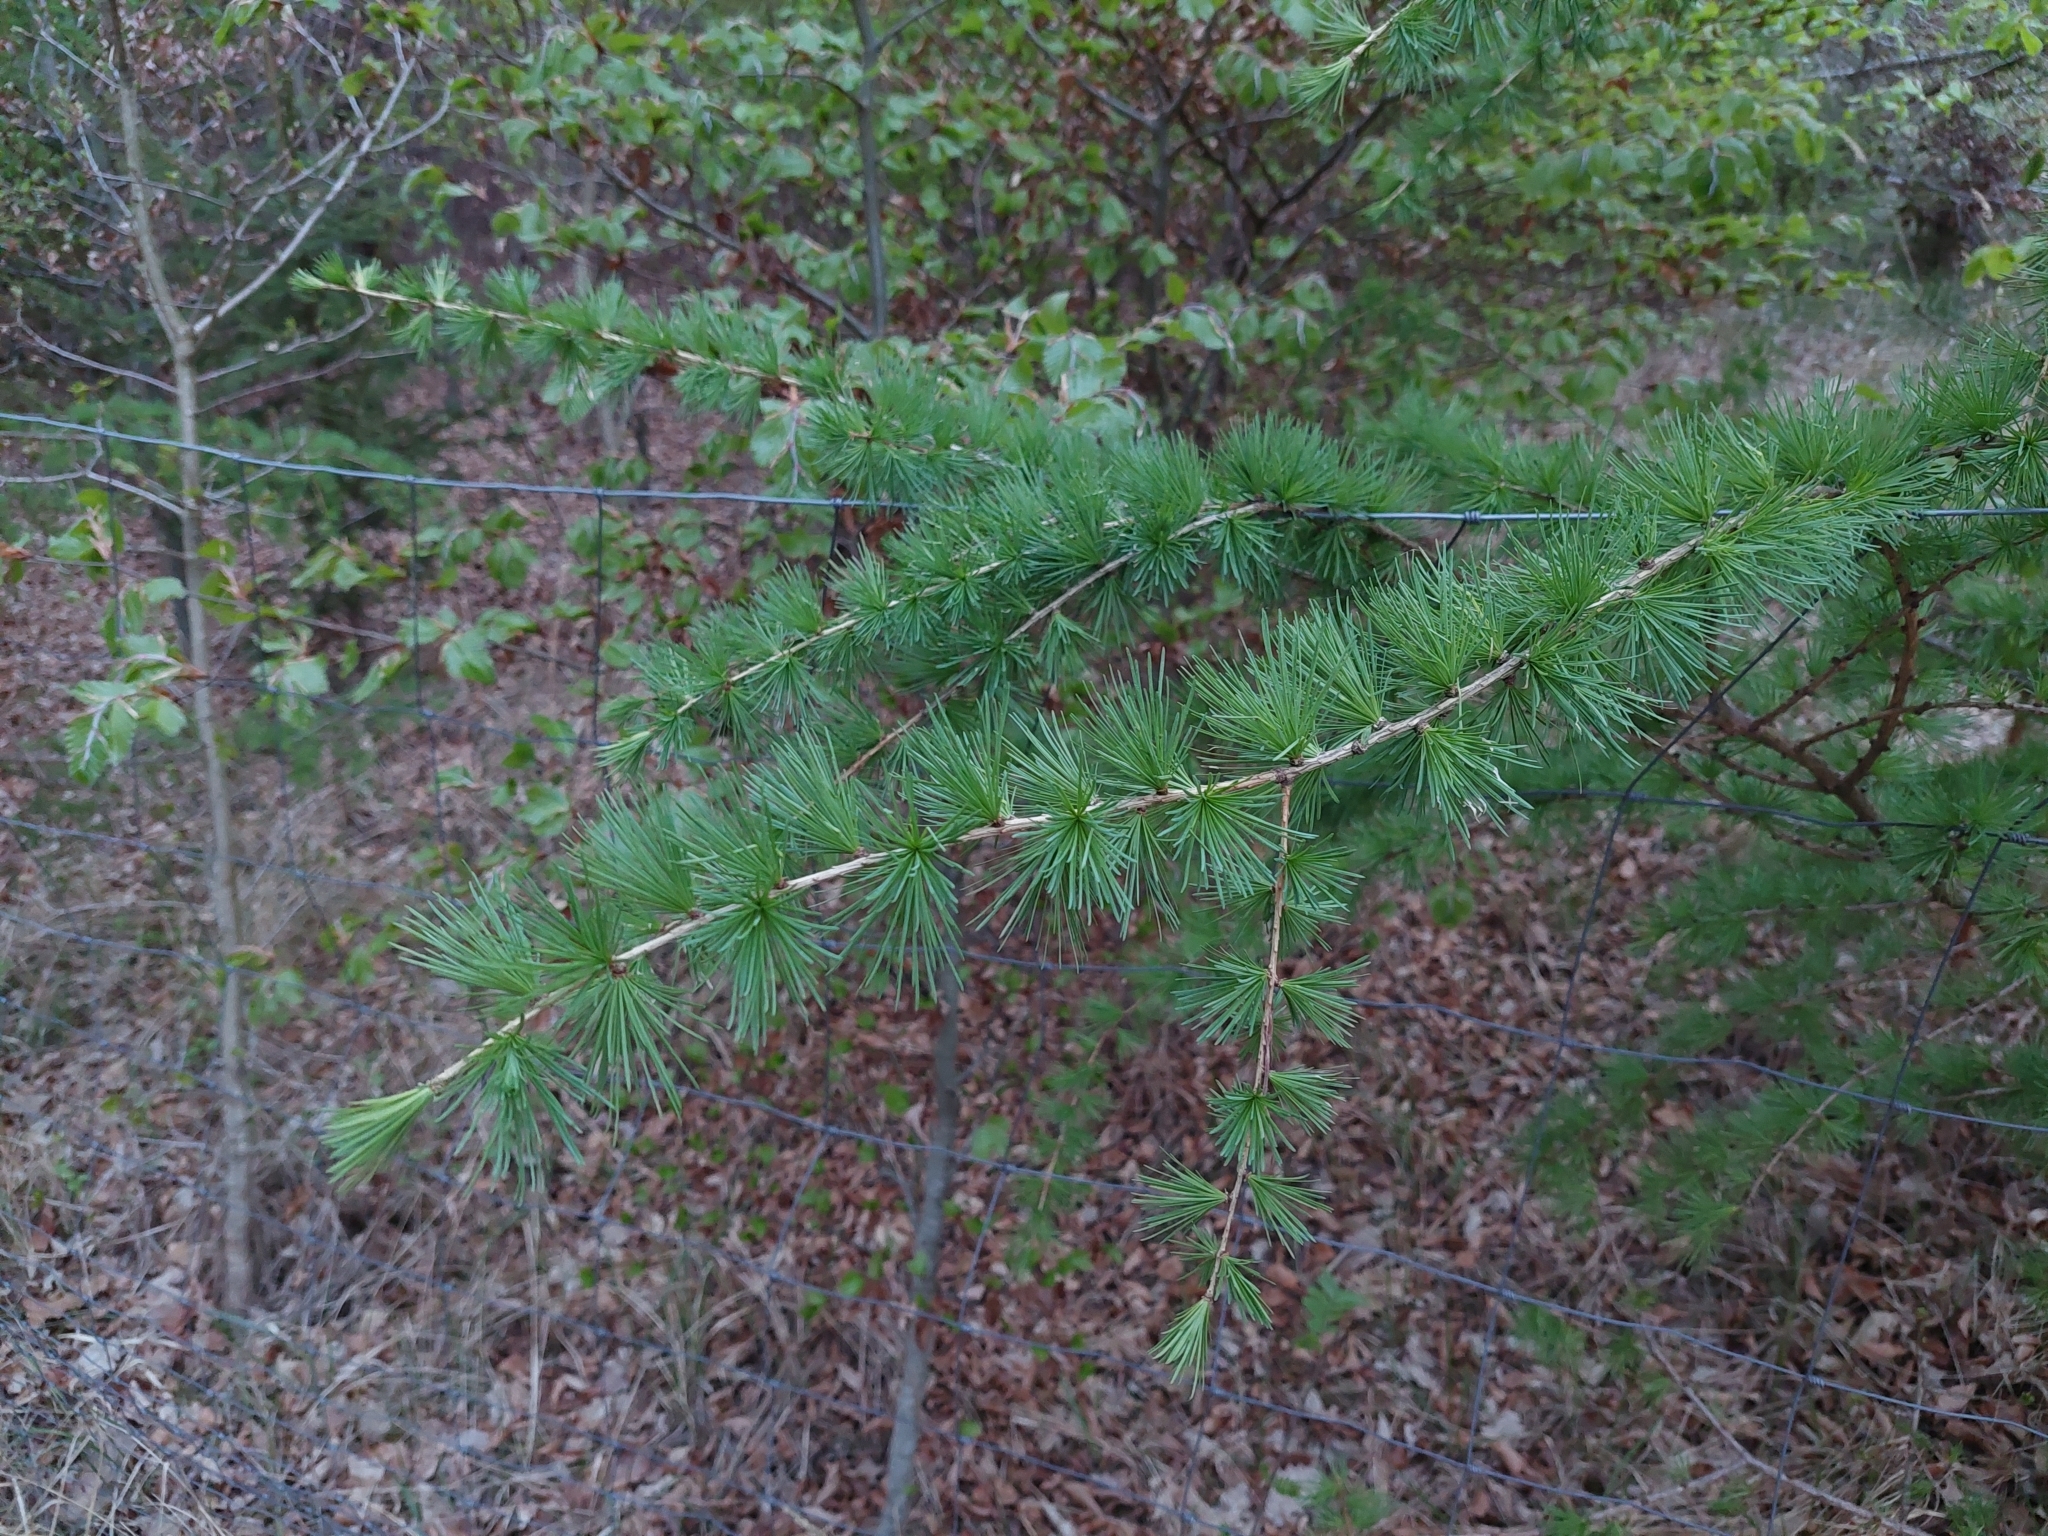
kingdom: Plantae
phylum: Tracheophyta
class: Pinopsida
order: Pinales
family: Pinaceae
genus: Larix
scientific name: Larix decidua
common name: European larch
